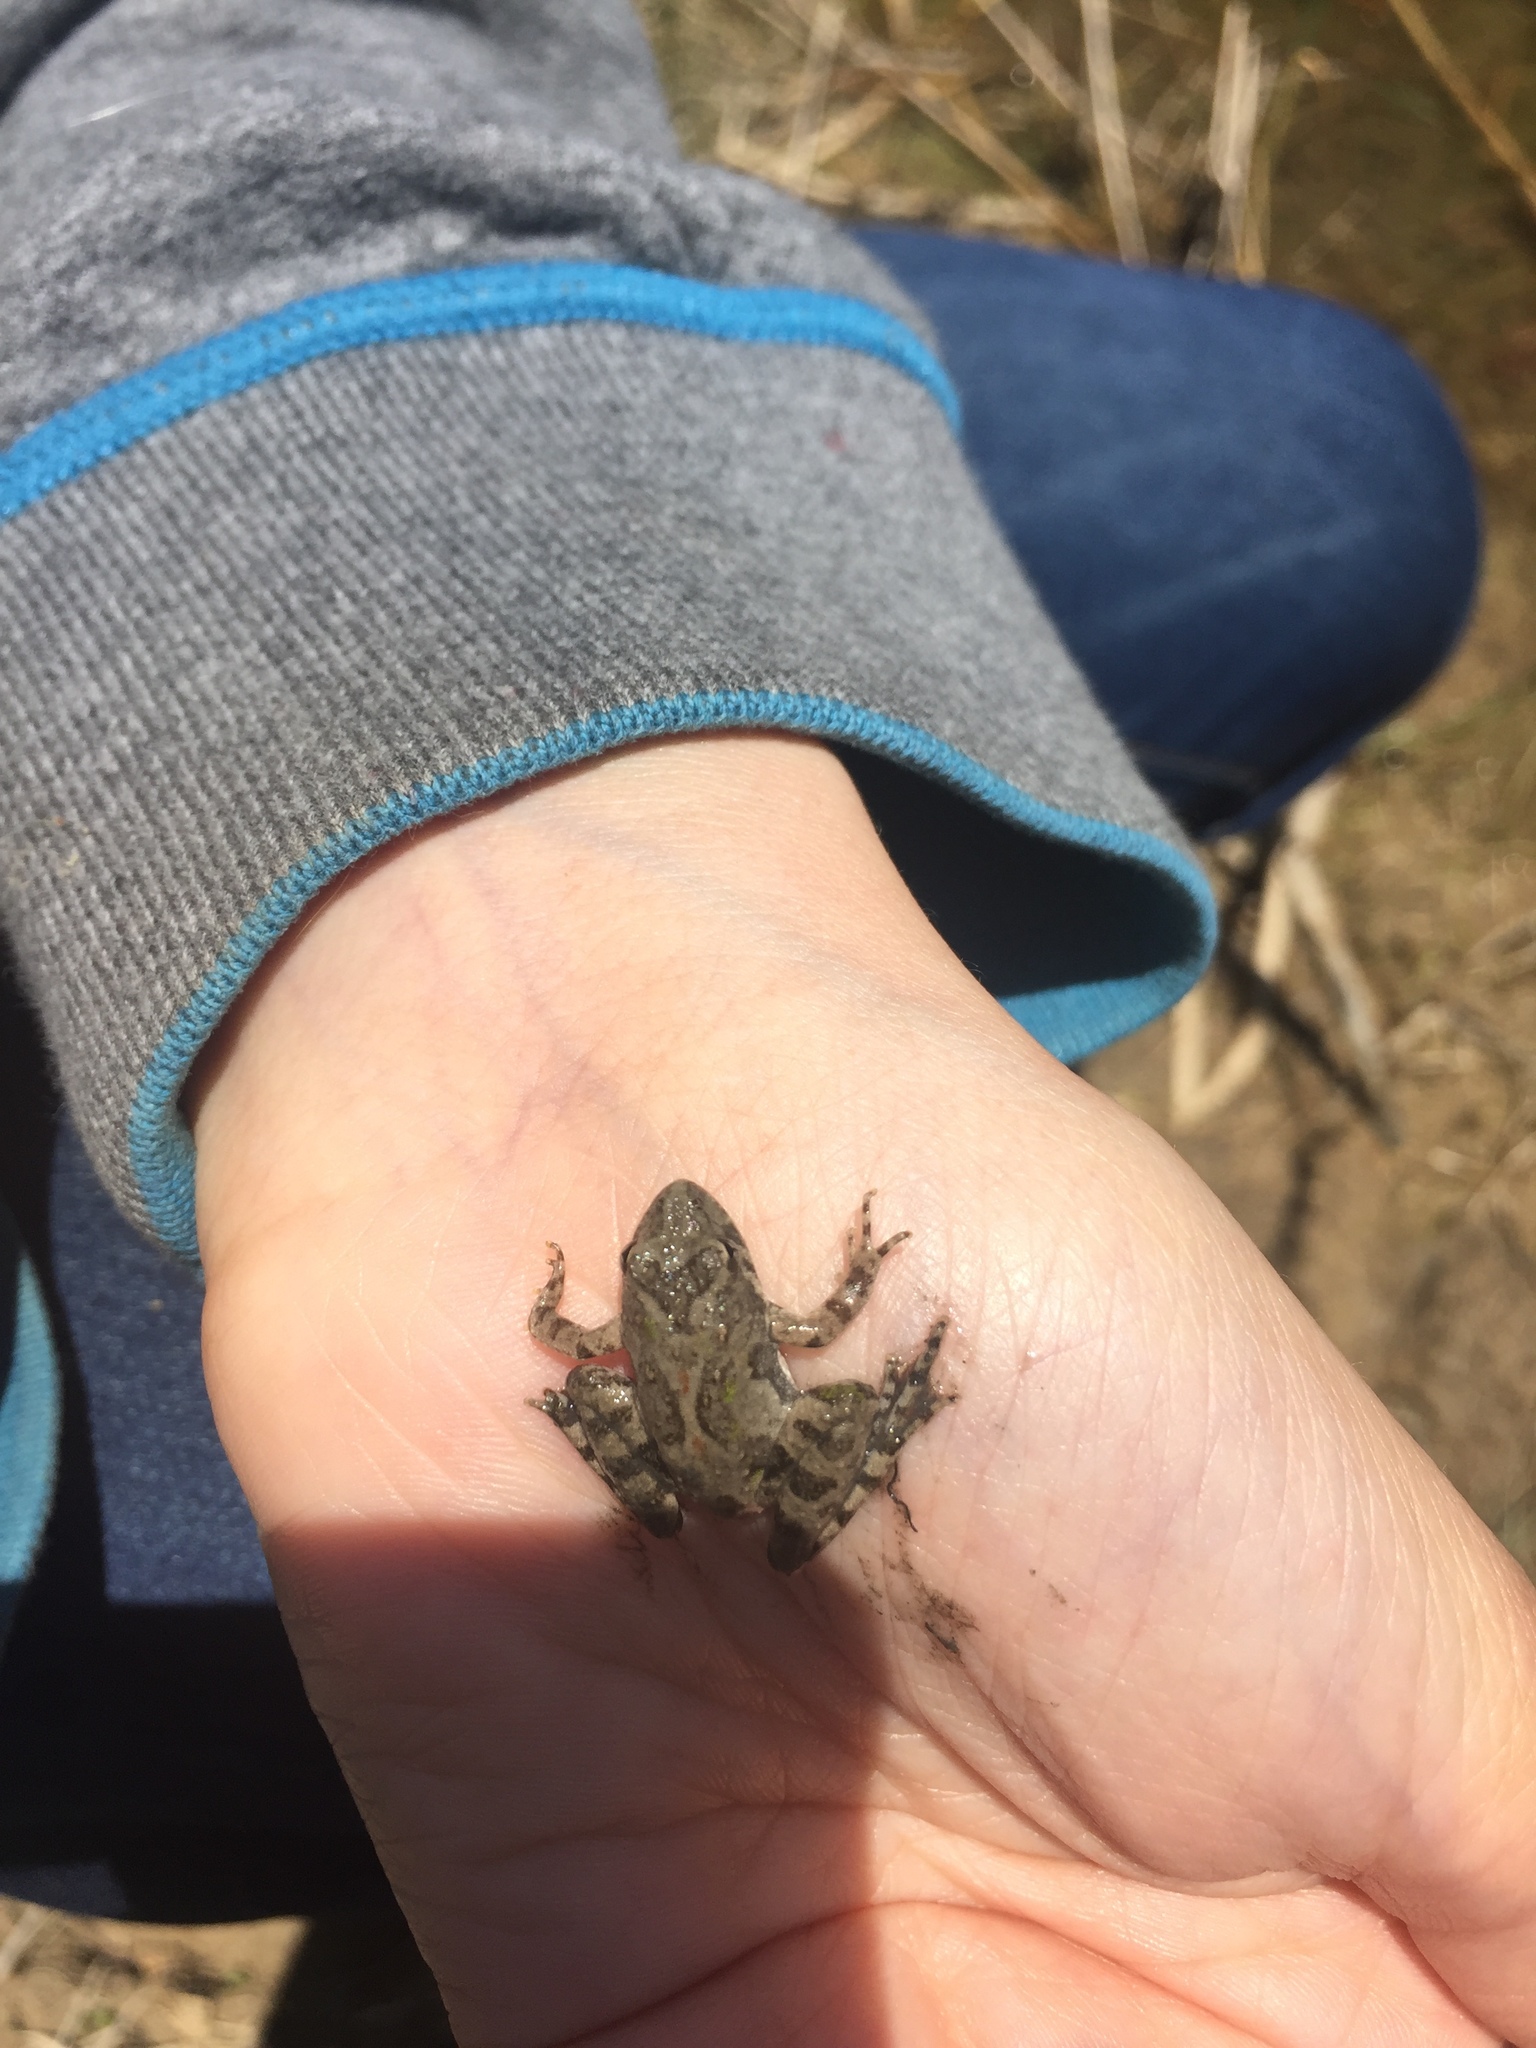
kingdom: Animalia
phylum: Chordata
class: Amphibia
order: Anura
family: Hylidae
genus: Acris
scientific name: Acris blanchardi
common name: Blanchard's cricket frog
